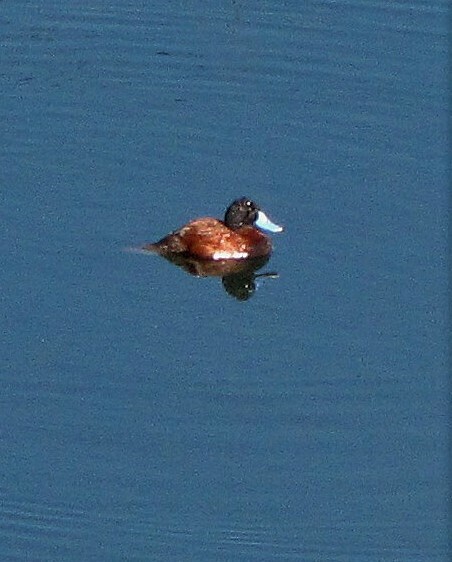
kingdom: Animalia
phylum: Chordata
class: Aves
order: Anseriformes
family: Anatidae
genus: Oxyura
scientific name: Oxyura ferruginea
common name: Andean duck
